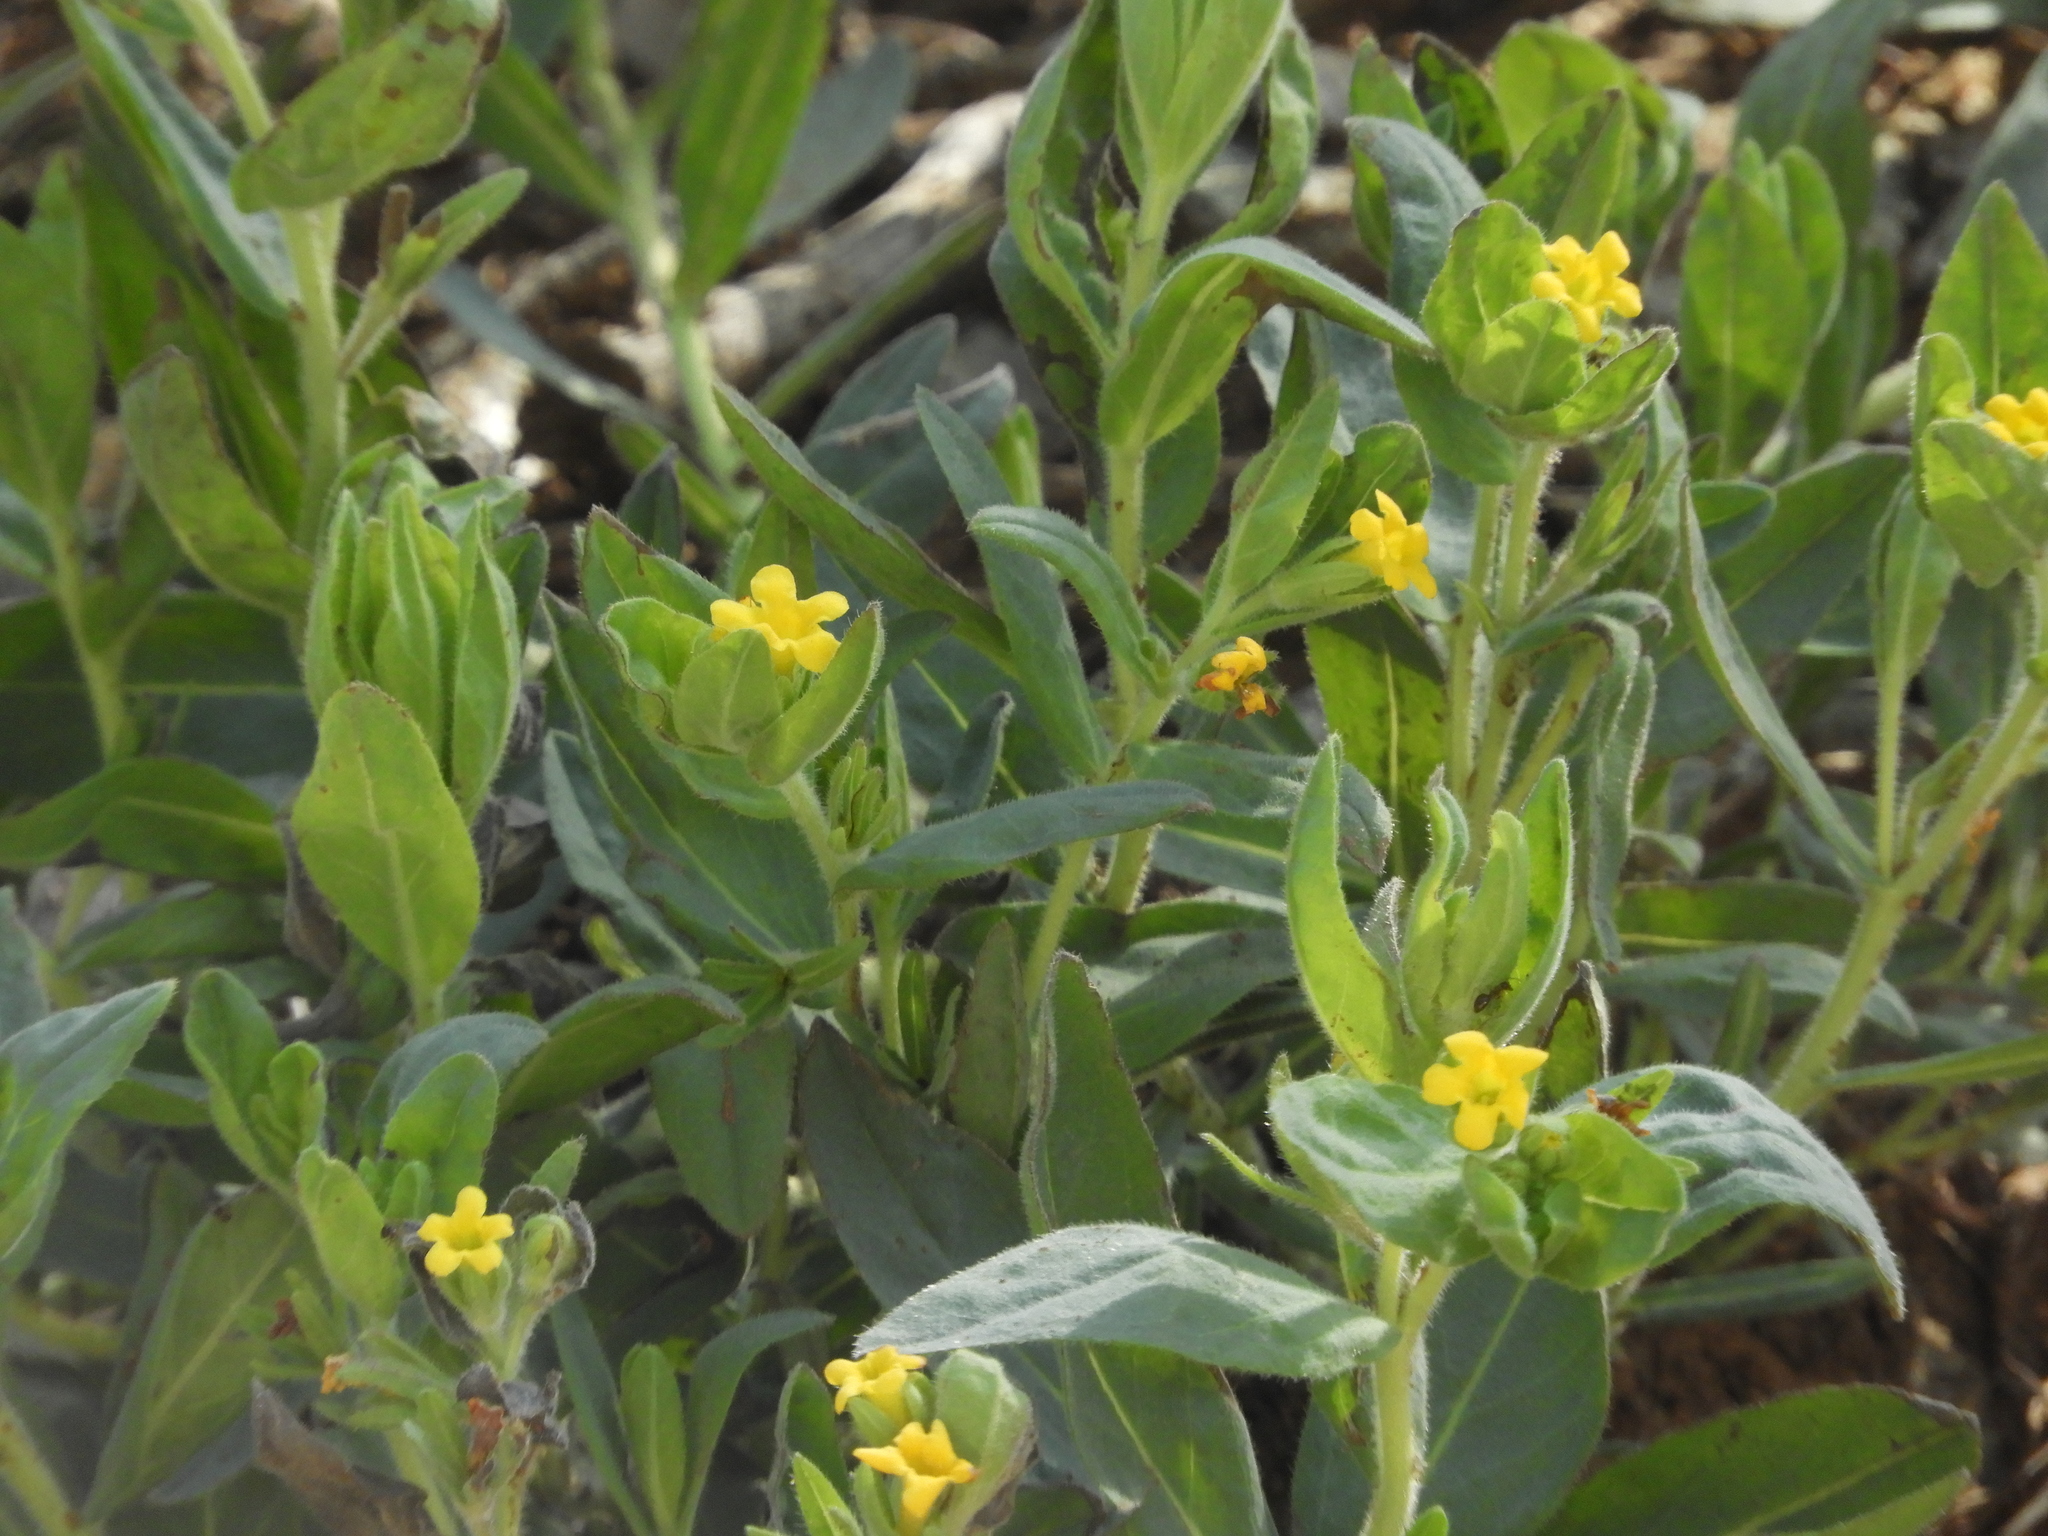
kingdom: Plantae
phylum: Tracheophyta
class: Magnoliopsida
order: Boraginales
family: Boraginaceae
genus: Lithospermum
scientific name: Lithospermum californicum
